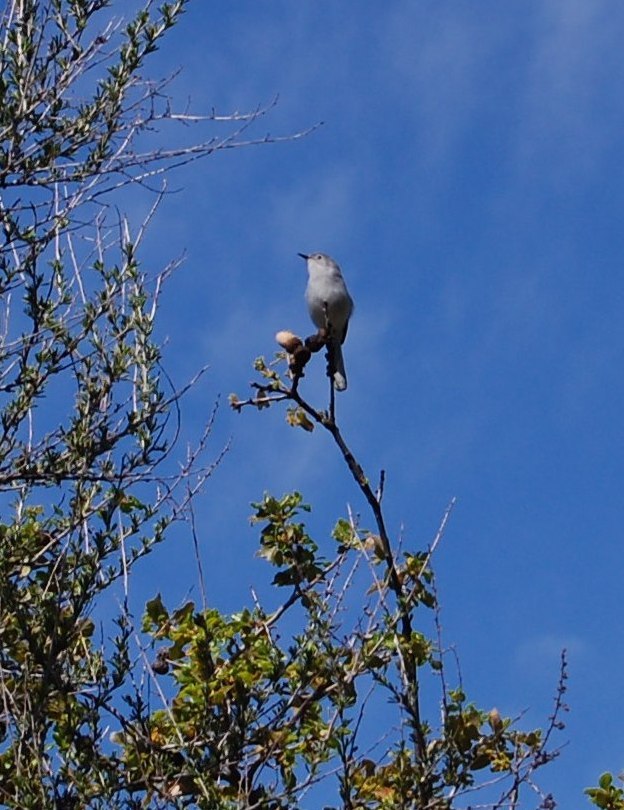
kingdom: Animalia
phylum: Chordata
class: Aves
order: Passeriformes
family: Polioptilidae
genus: Polioptila
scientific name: Polioptila caerulea
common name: Blue-gray gnatcatcher
